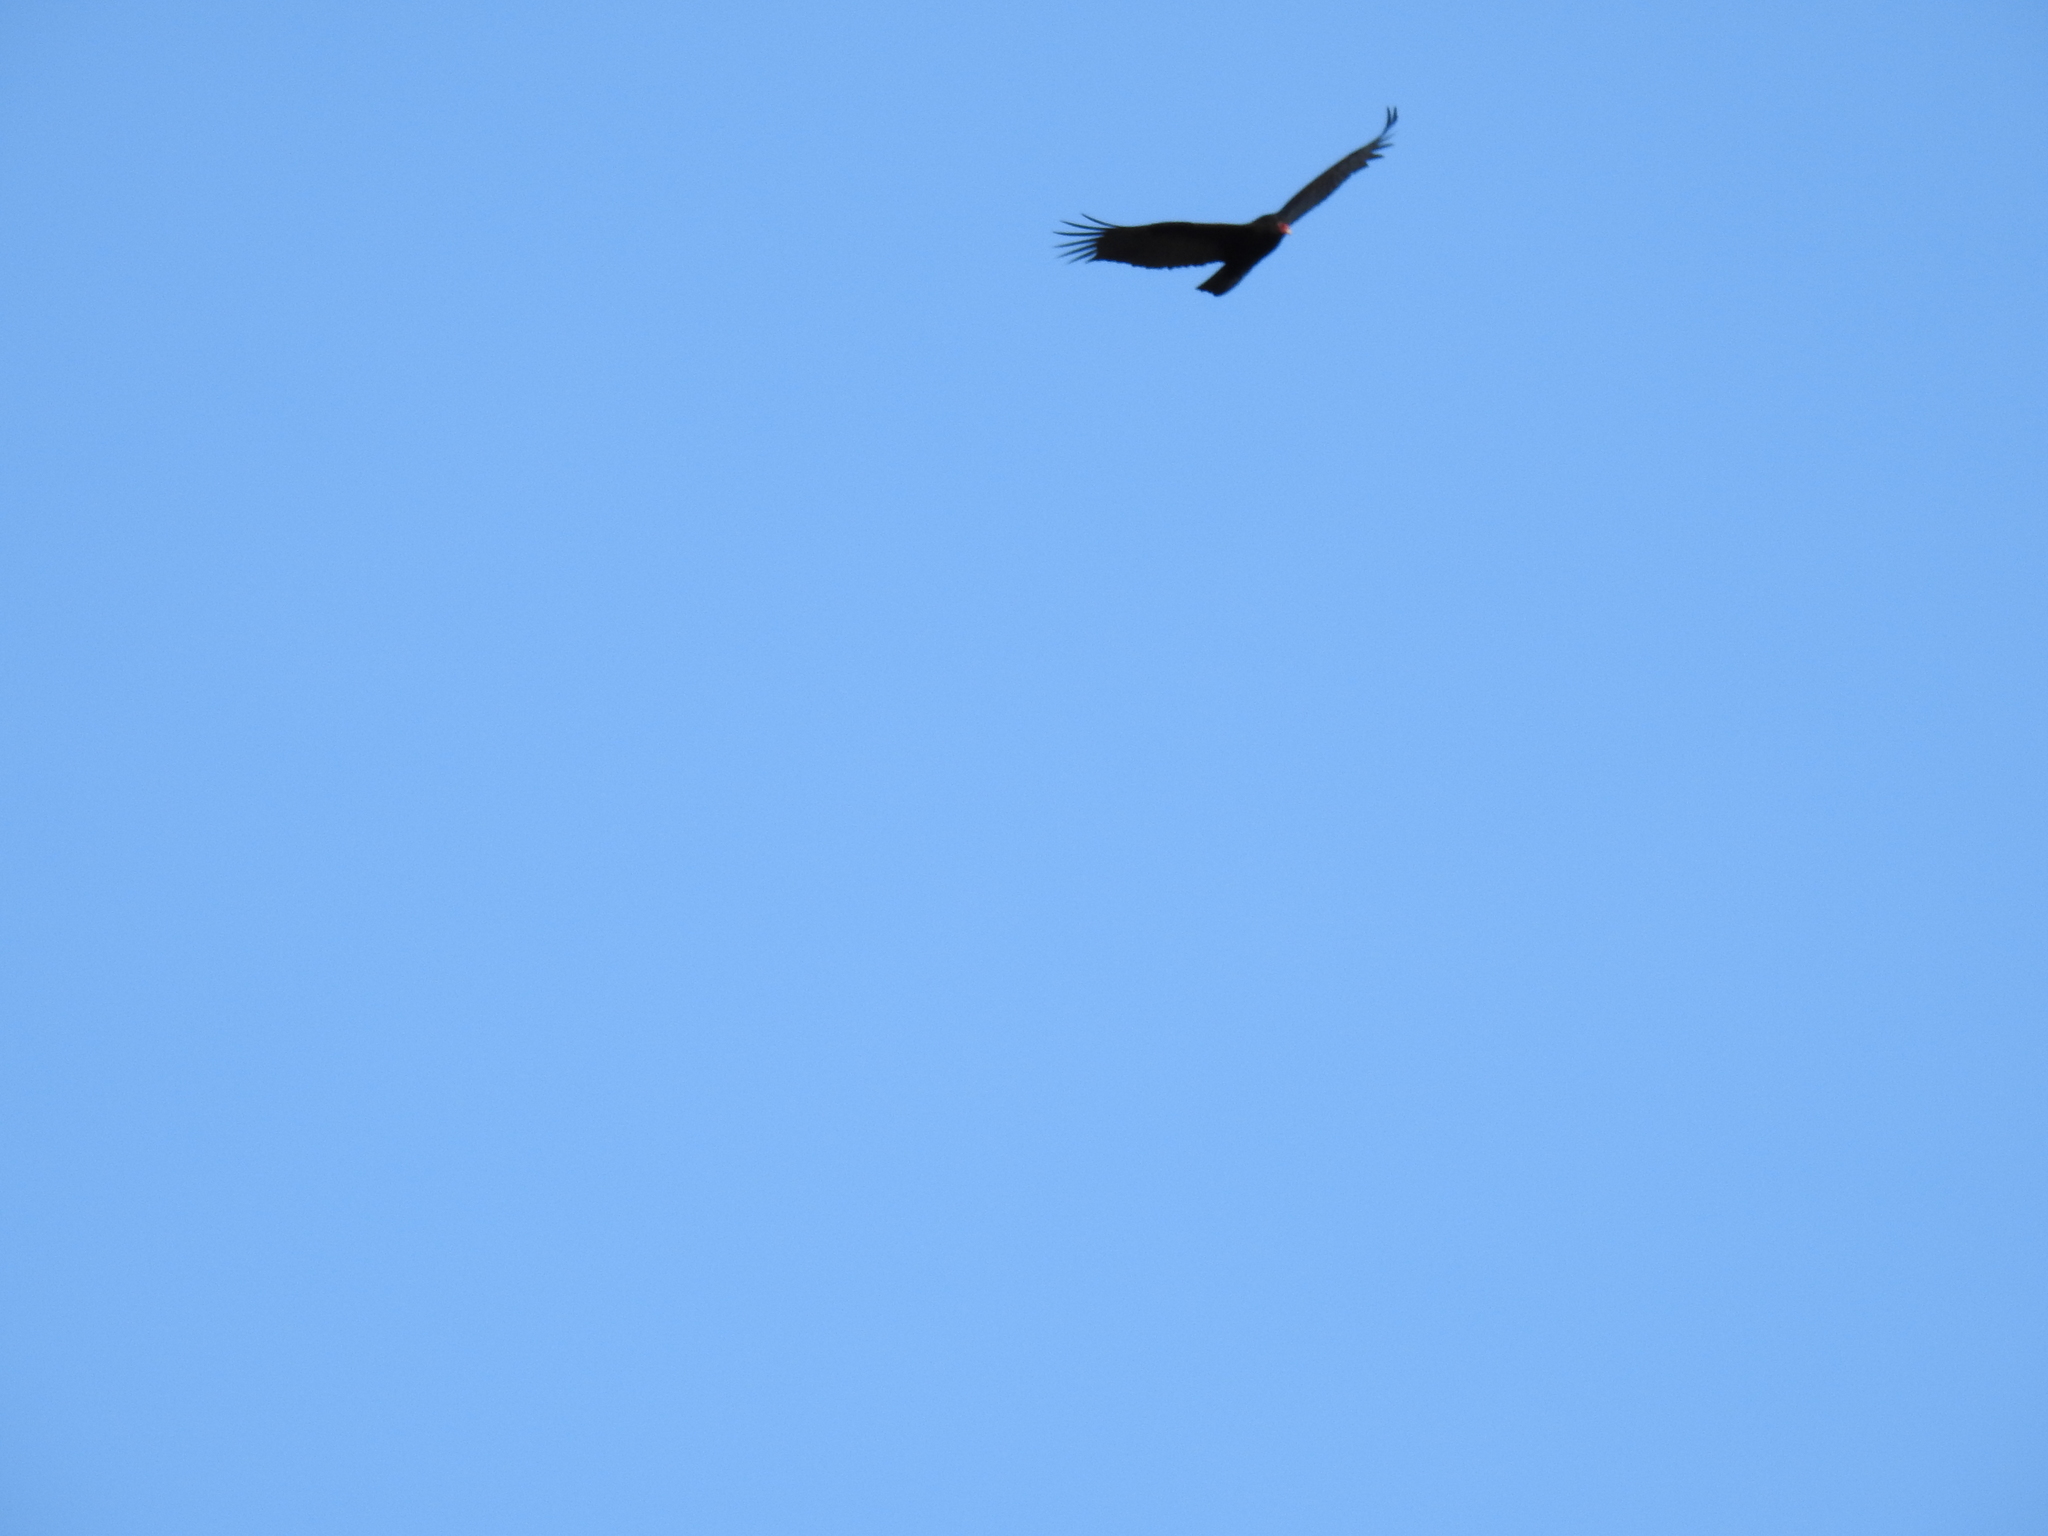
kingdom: Animalia
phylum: Chordata
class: Aves
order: Accipitriformes
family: Cathartidae
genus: Cathartes
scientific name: Cathartes aura
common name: Turkey vulture
